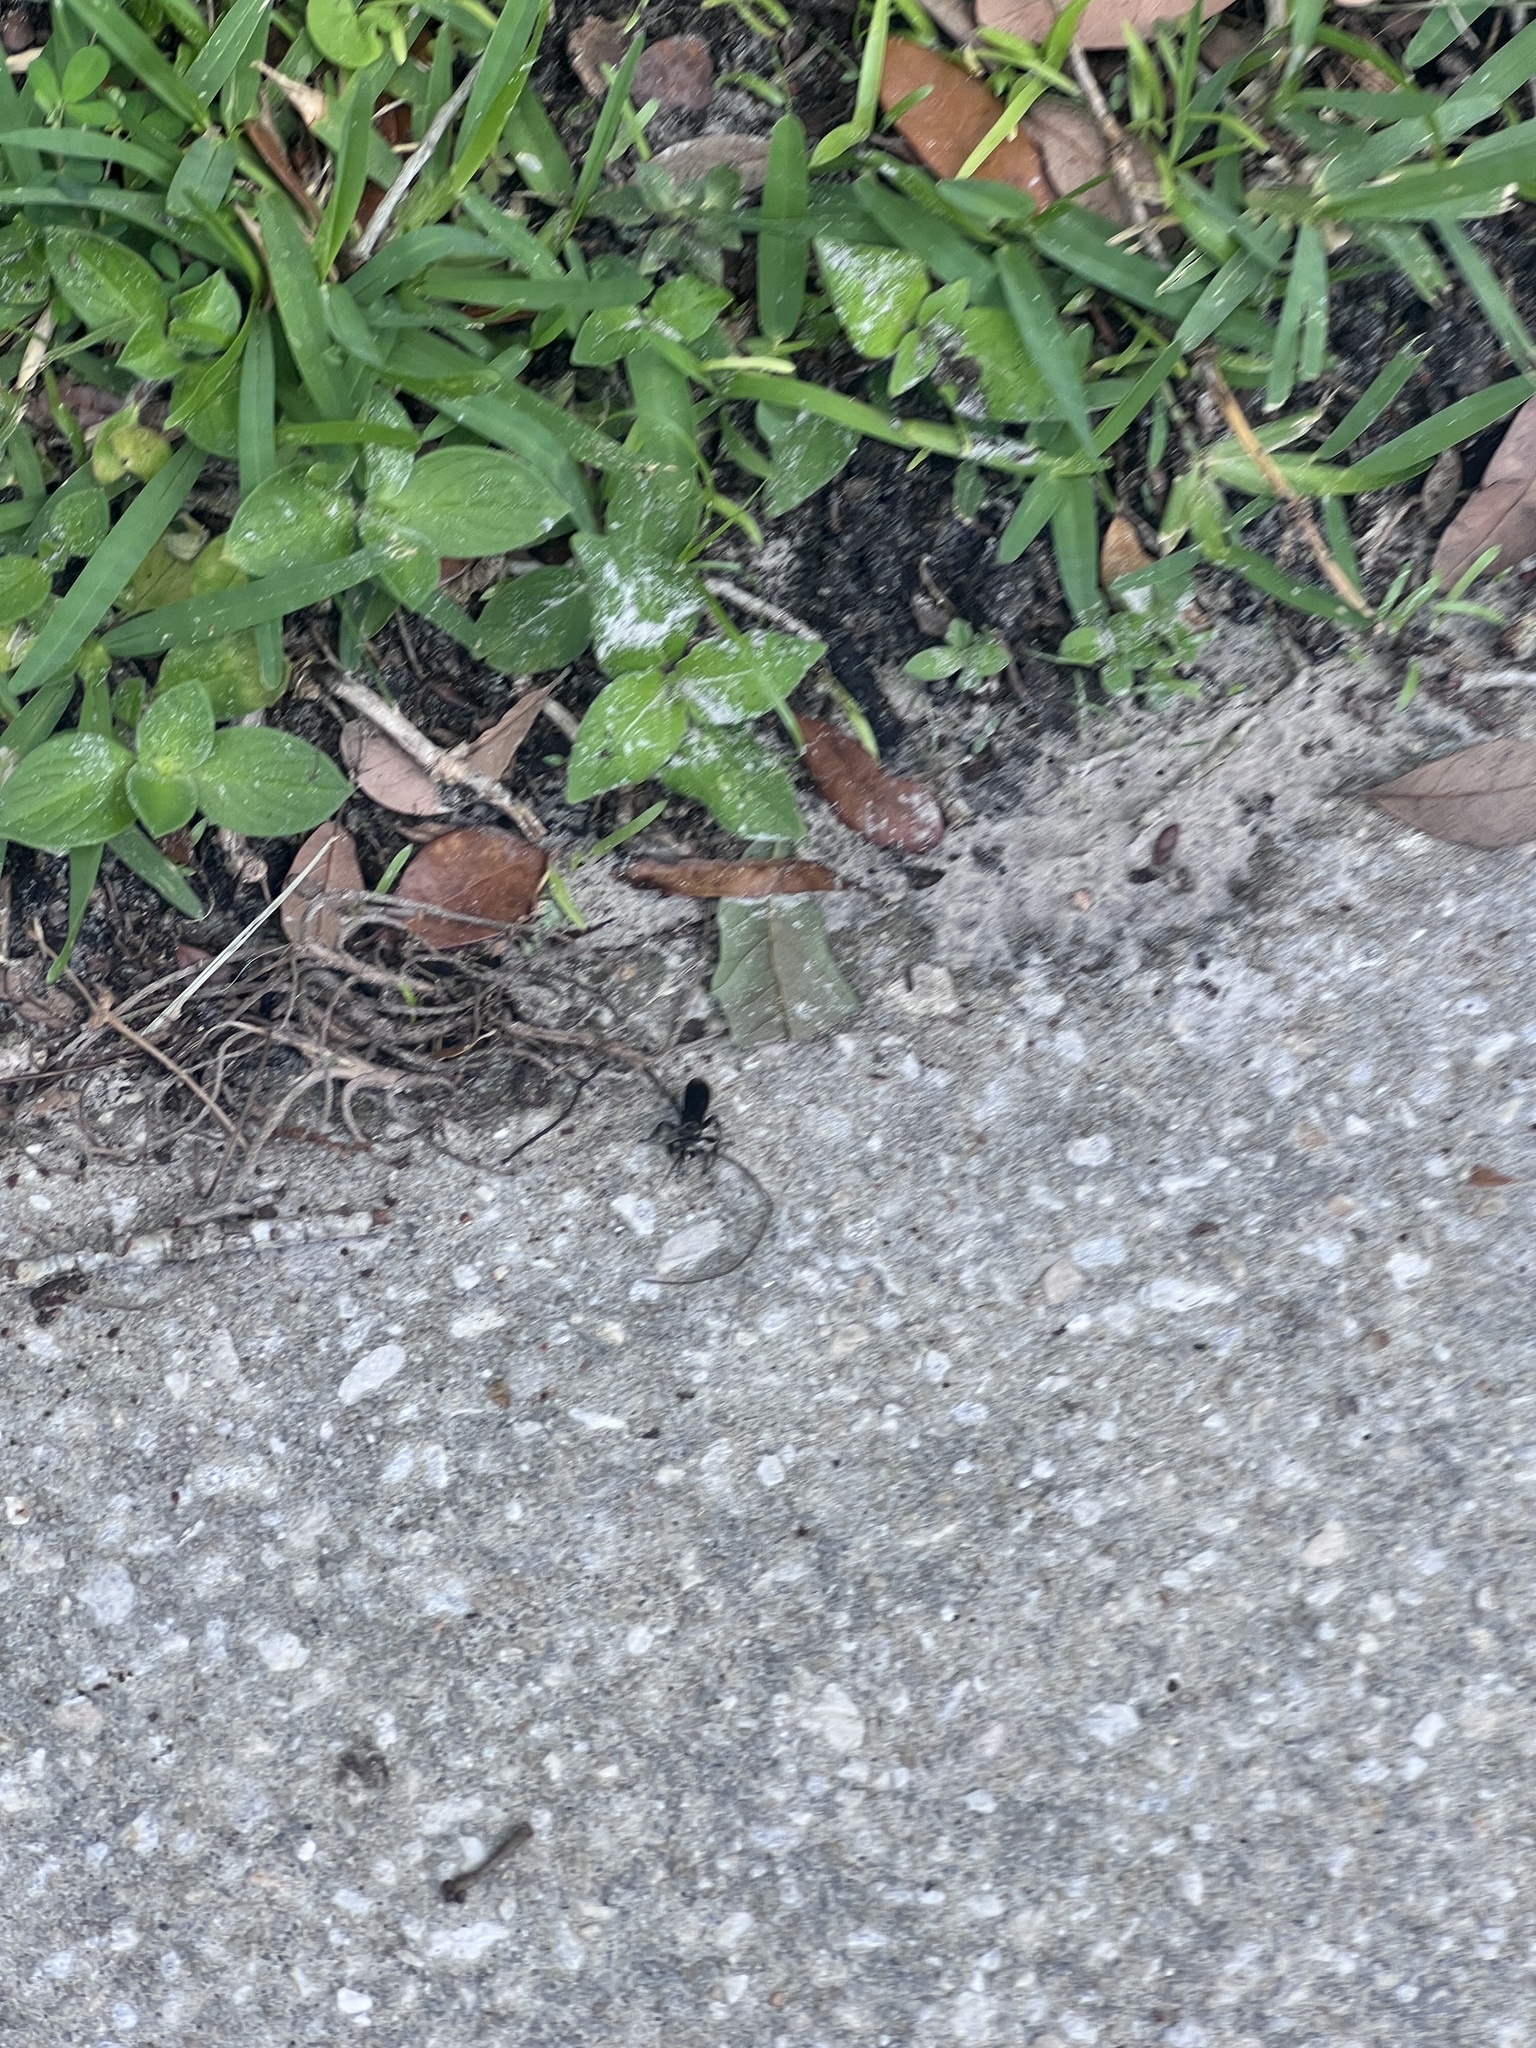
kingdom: Animalia
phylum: Arthropoda
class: Insecta
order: Hymenoptera
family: Crabronidae
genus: Larra
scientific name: Larra bicolor
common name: Wasp
